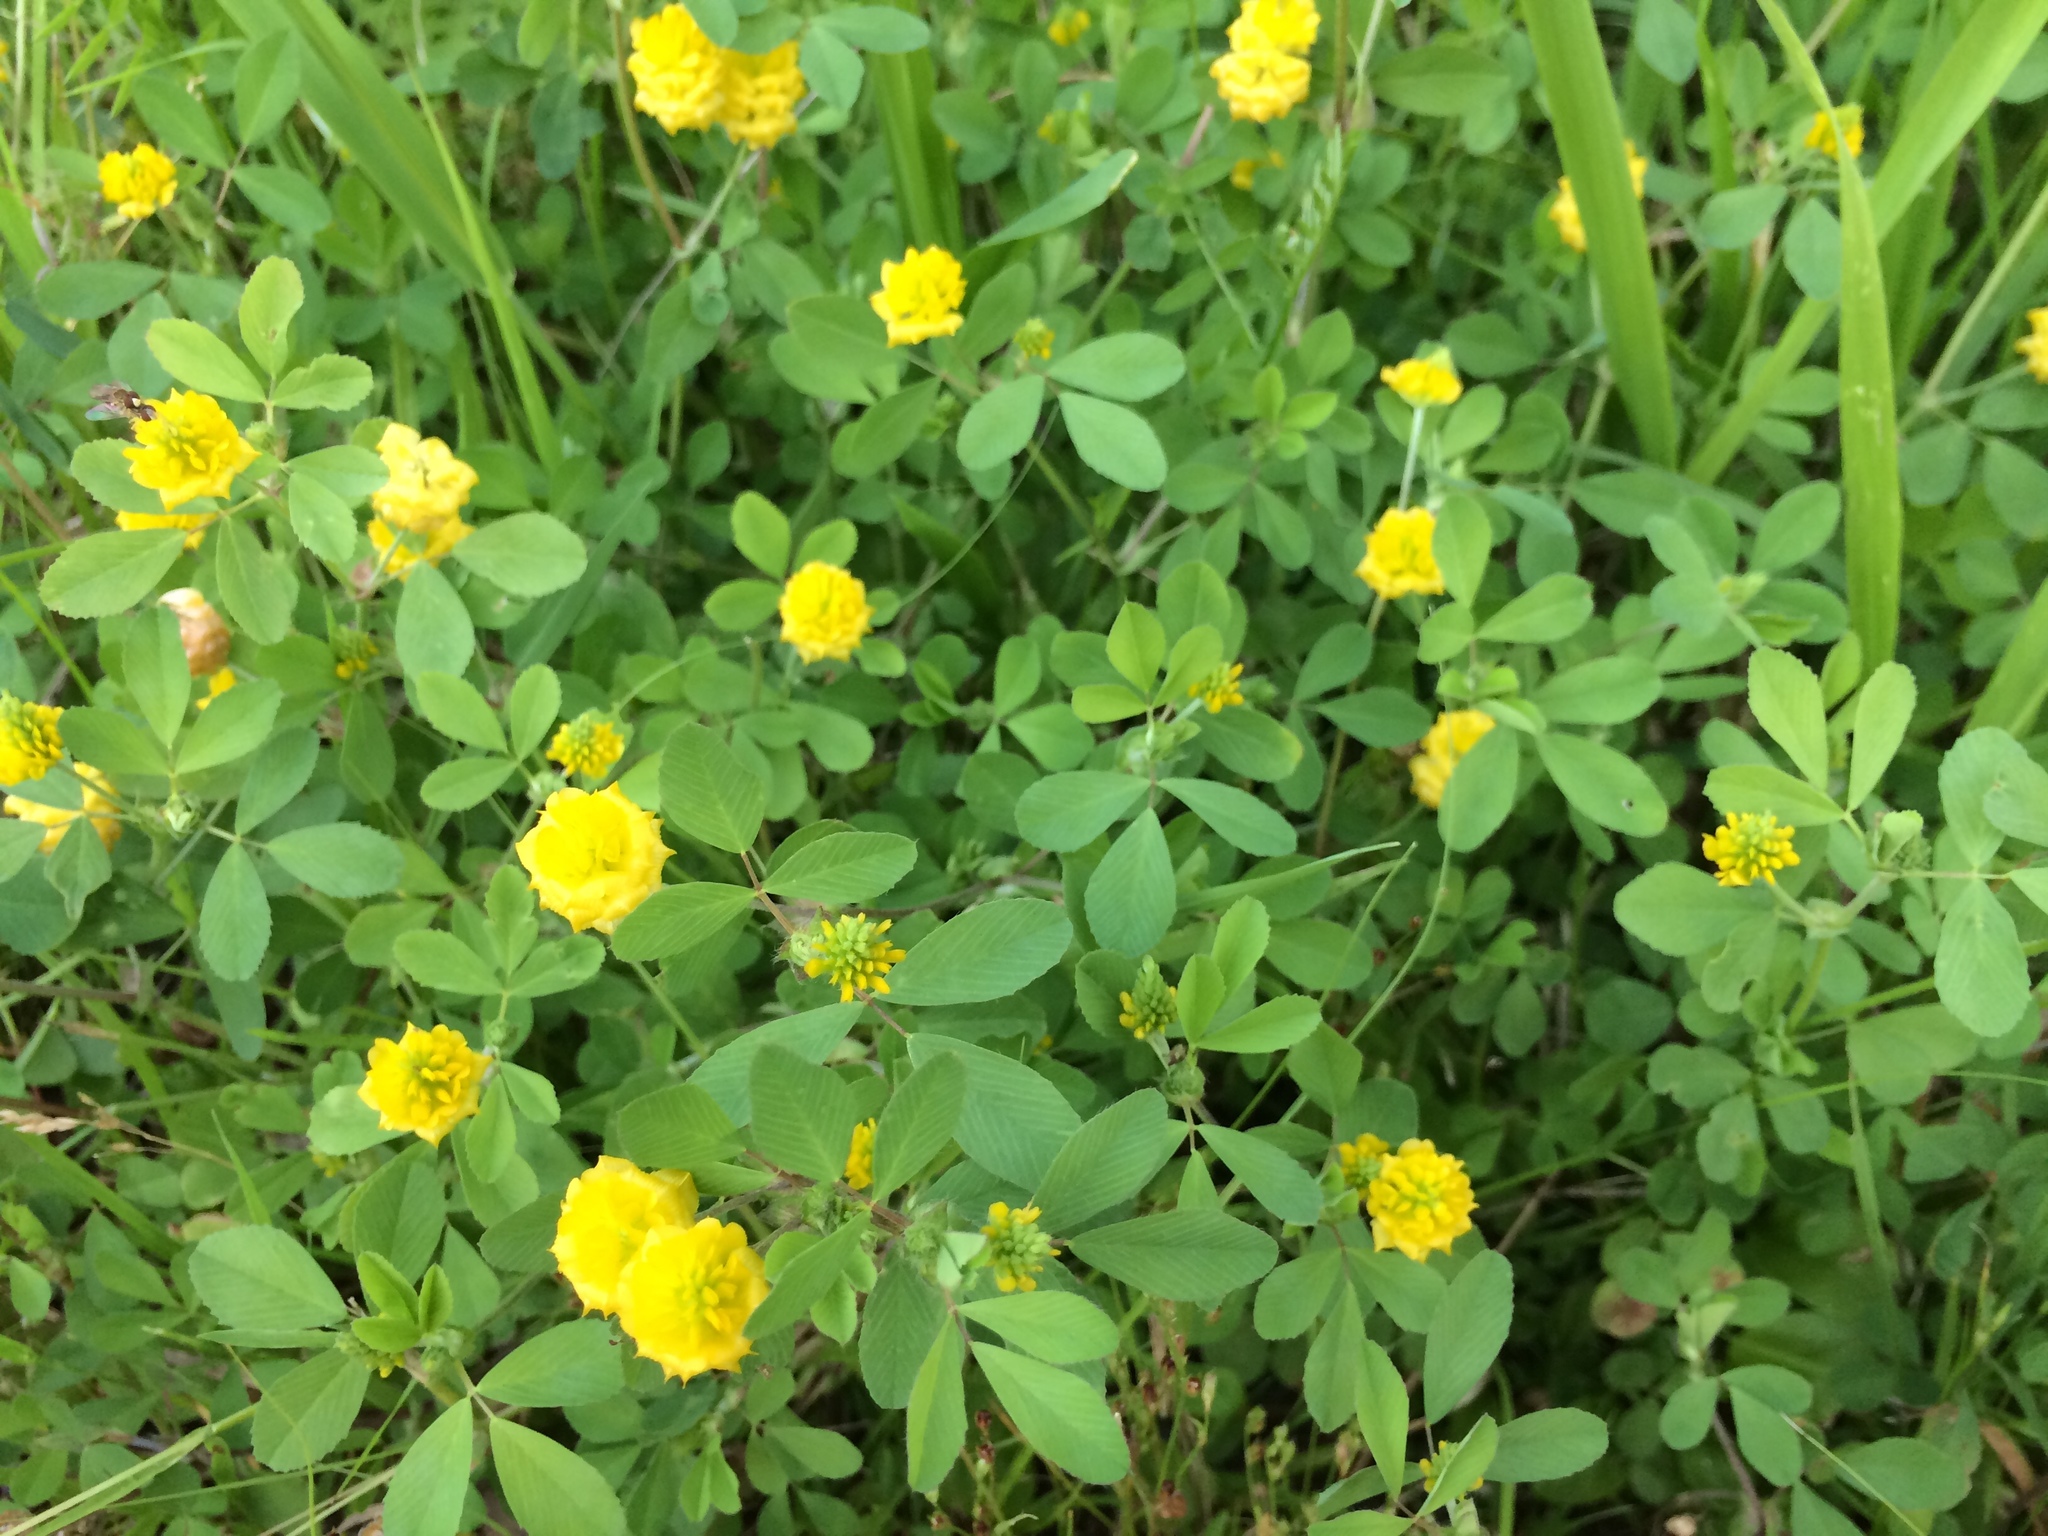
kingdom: Plantae
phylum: Tracheophyta
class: Magnoliopsida
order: Fabales
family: Fabaceae
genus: Trifolium
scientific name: Trifolium campestre
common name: Field clover
